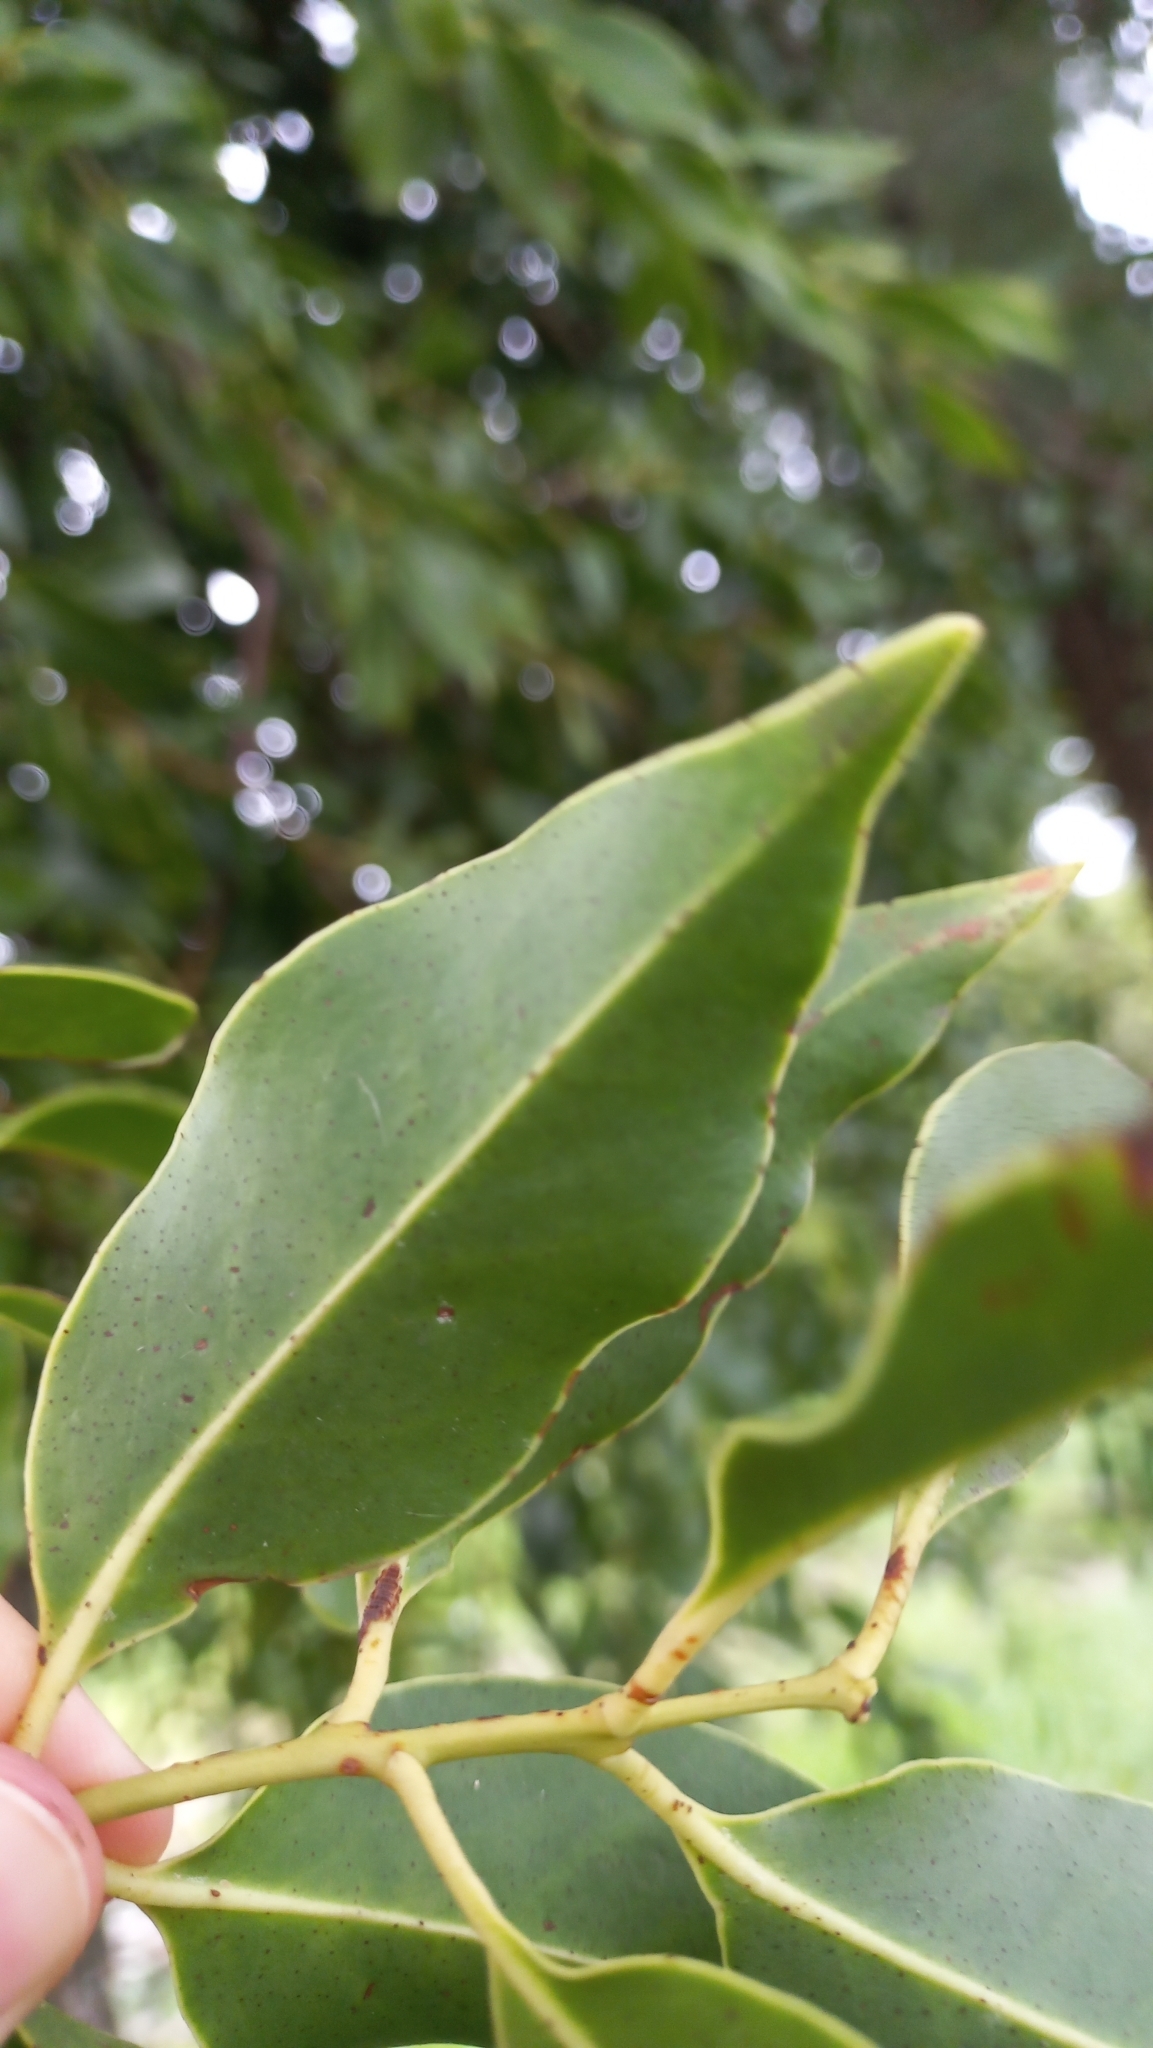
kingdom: Plantae
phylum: Tracheophyta
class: Magnoliopsida
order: Santalales
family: Loranthaceae
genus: Tripodanthus
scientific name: Tripodanthus acutifolius
